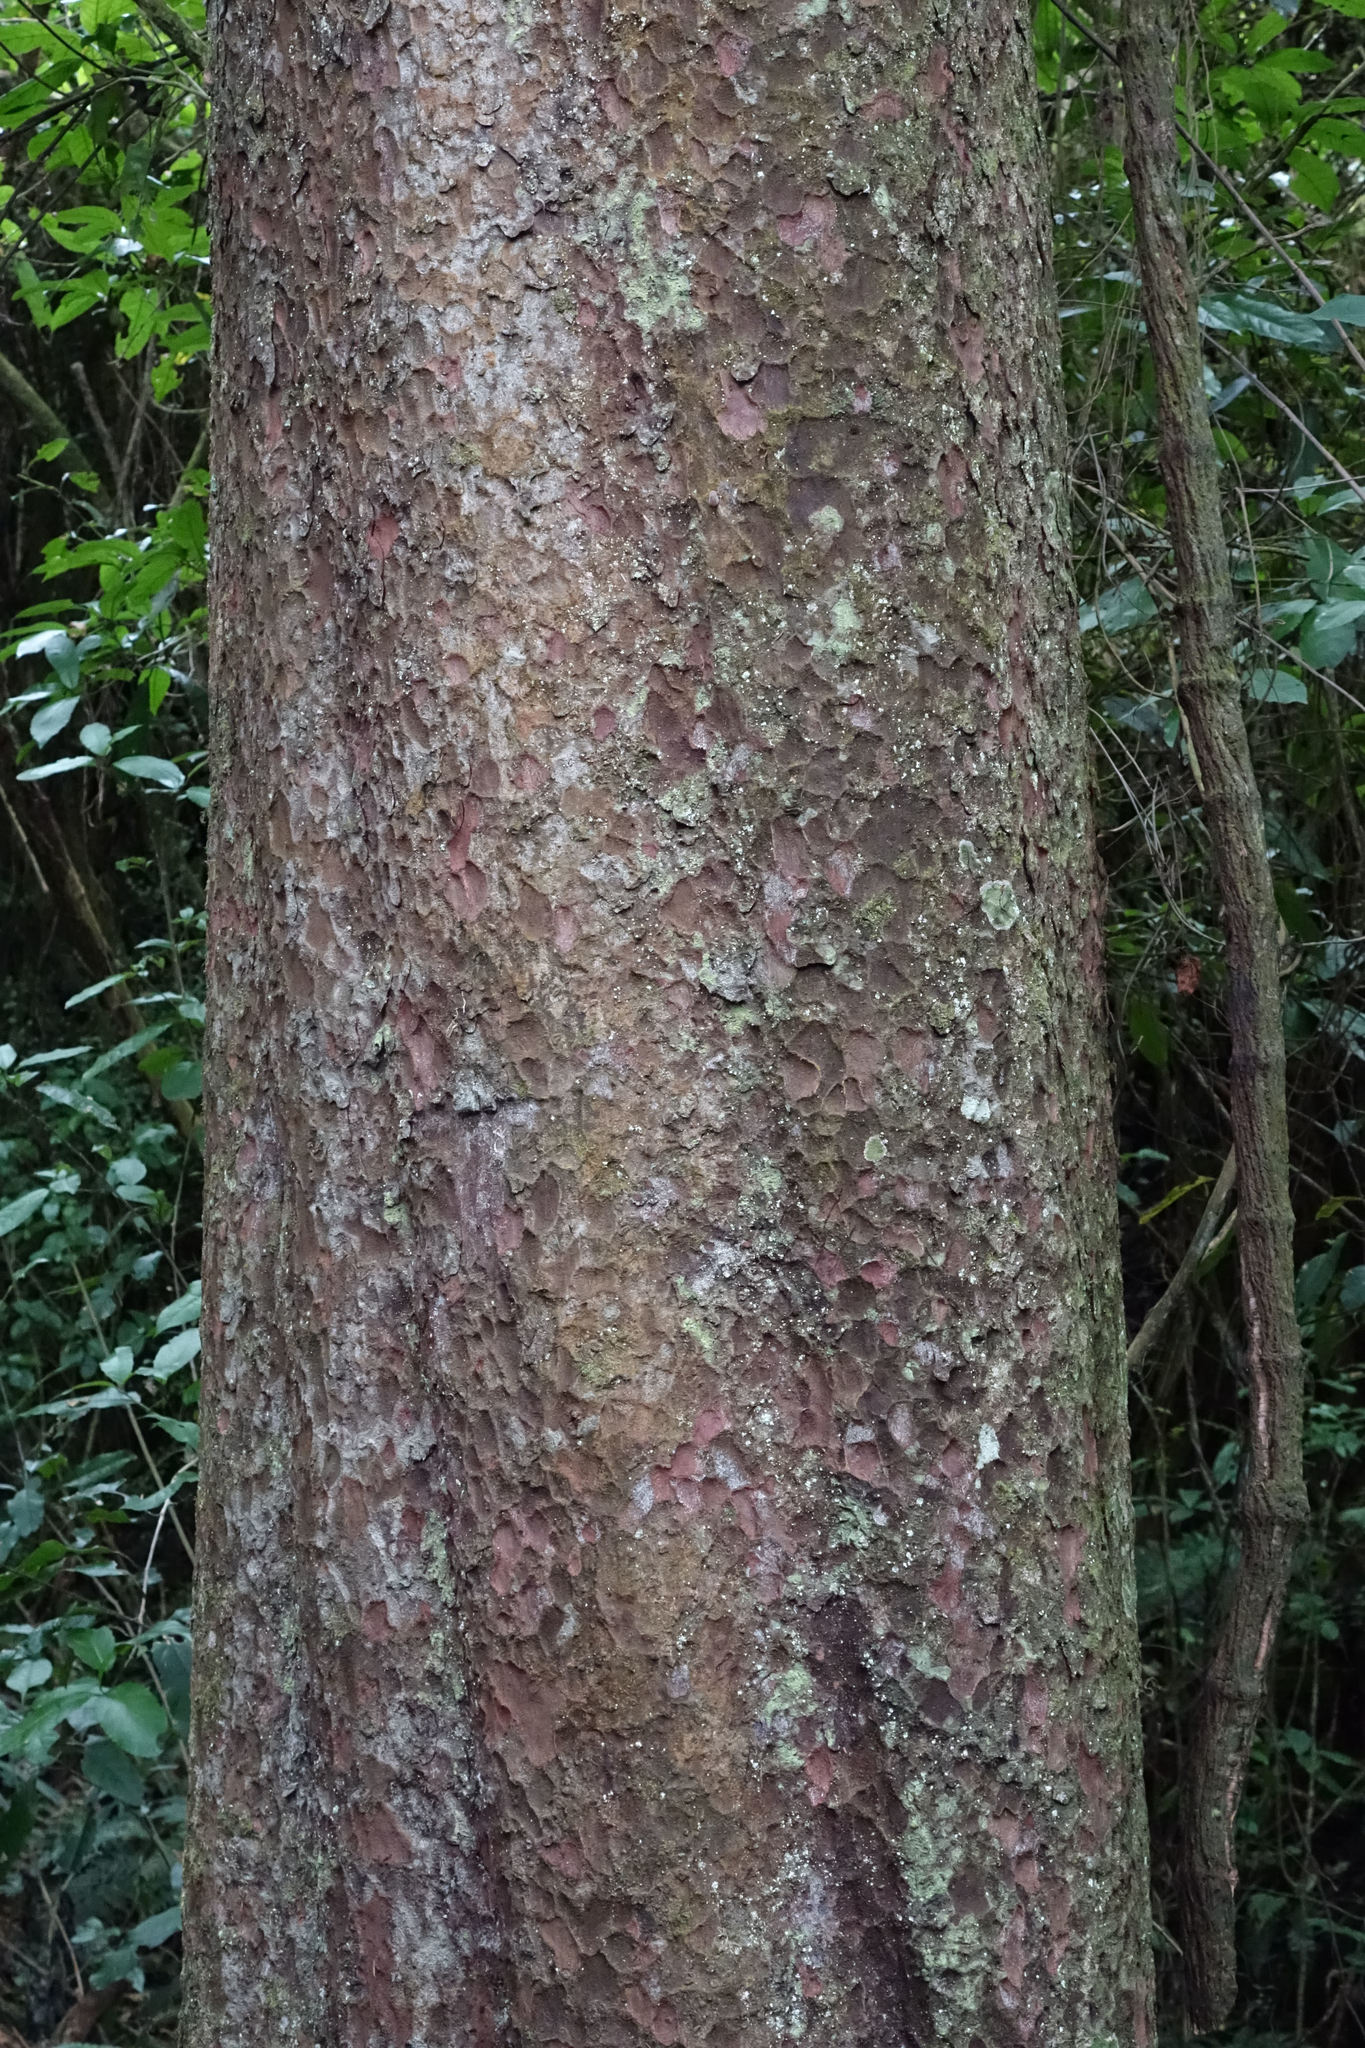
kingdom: Plantae
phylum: Tracheophyta
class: Pinopsida
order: Pinales
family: Podocarpaceae
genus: Prumnopitys
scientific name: Prumnopitys taxifolia
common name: Matai
